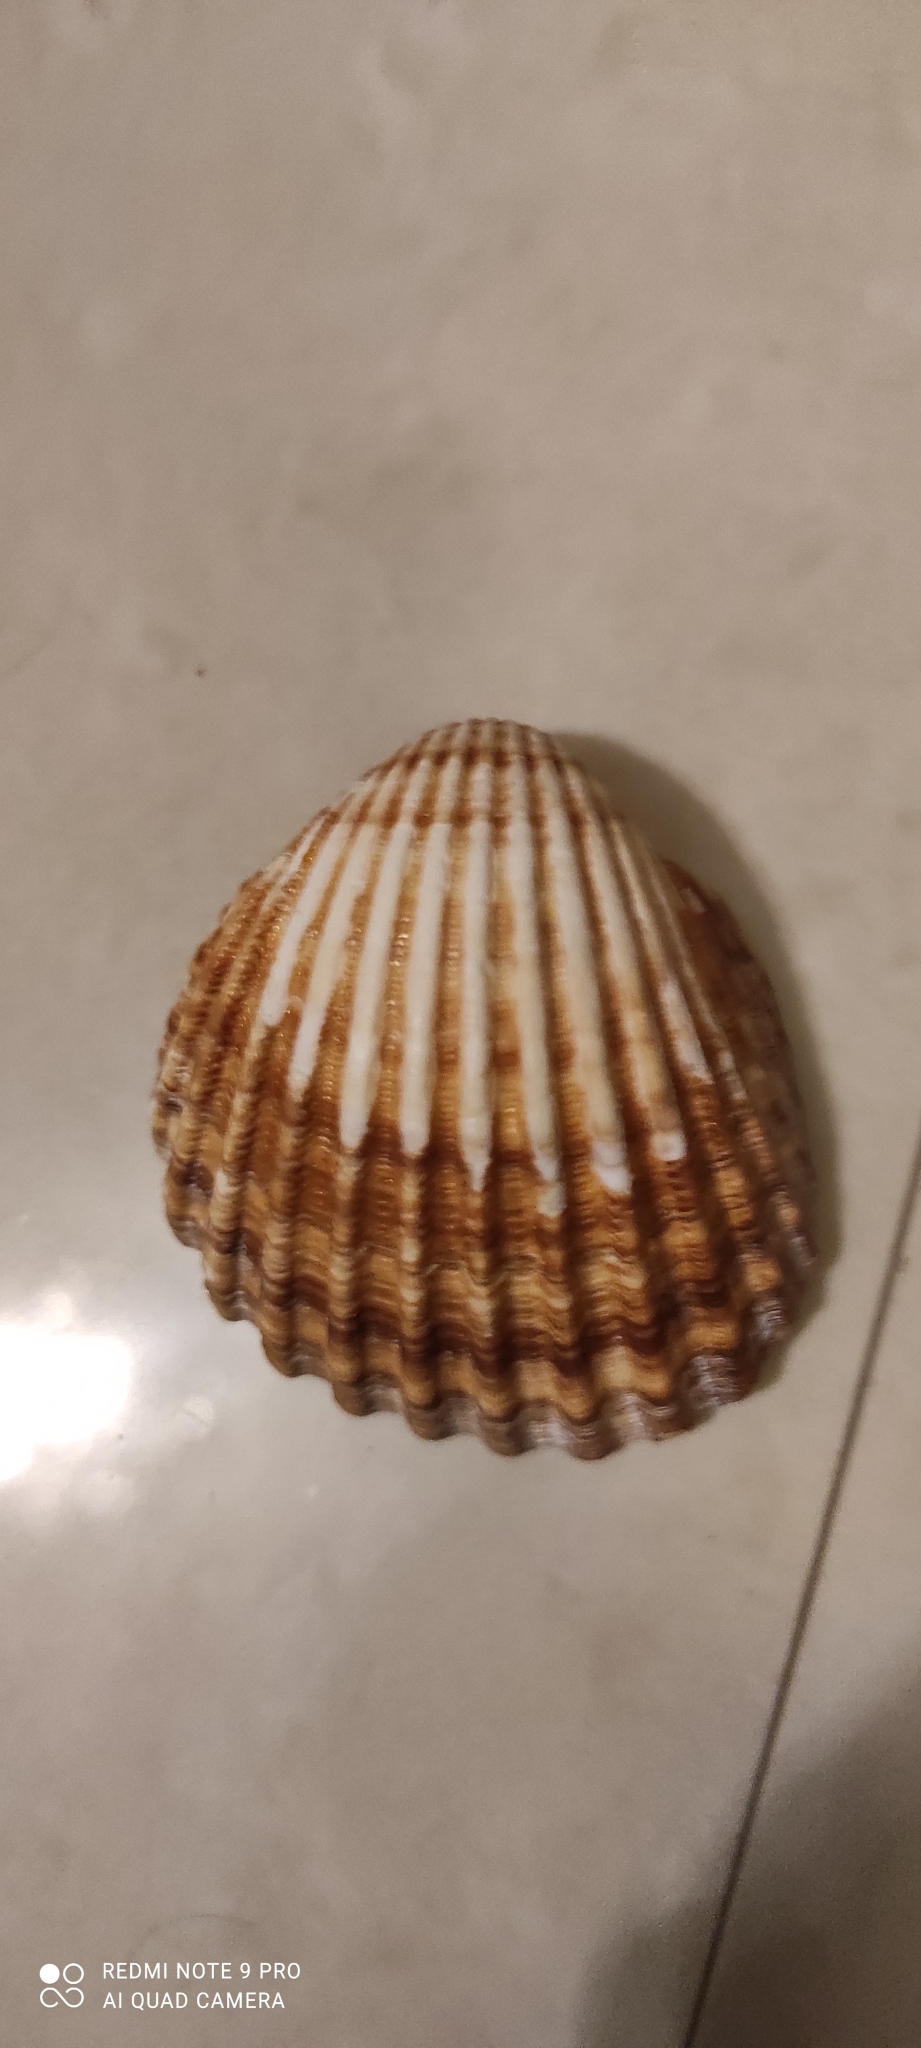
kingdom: Animalia
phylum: Mollusca
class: Bivalvia
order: Cardiida
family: Cardiidae
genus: Acanthocardia
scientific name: Acanthocardia tuberculata
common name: Rough cockle
